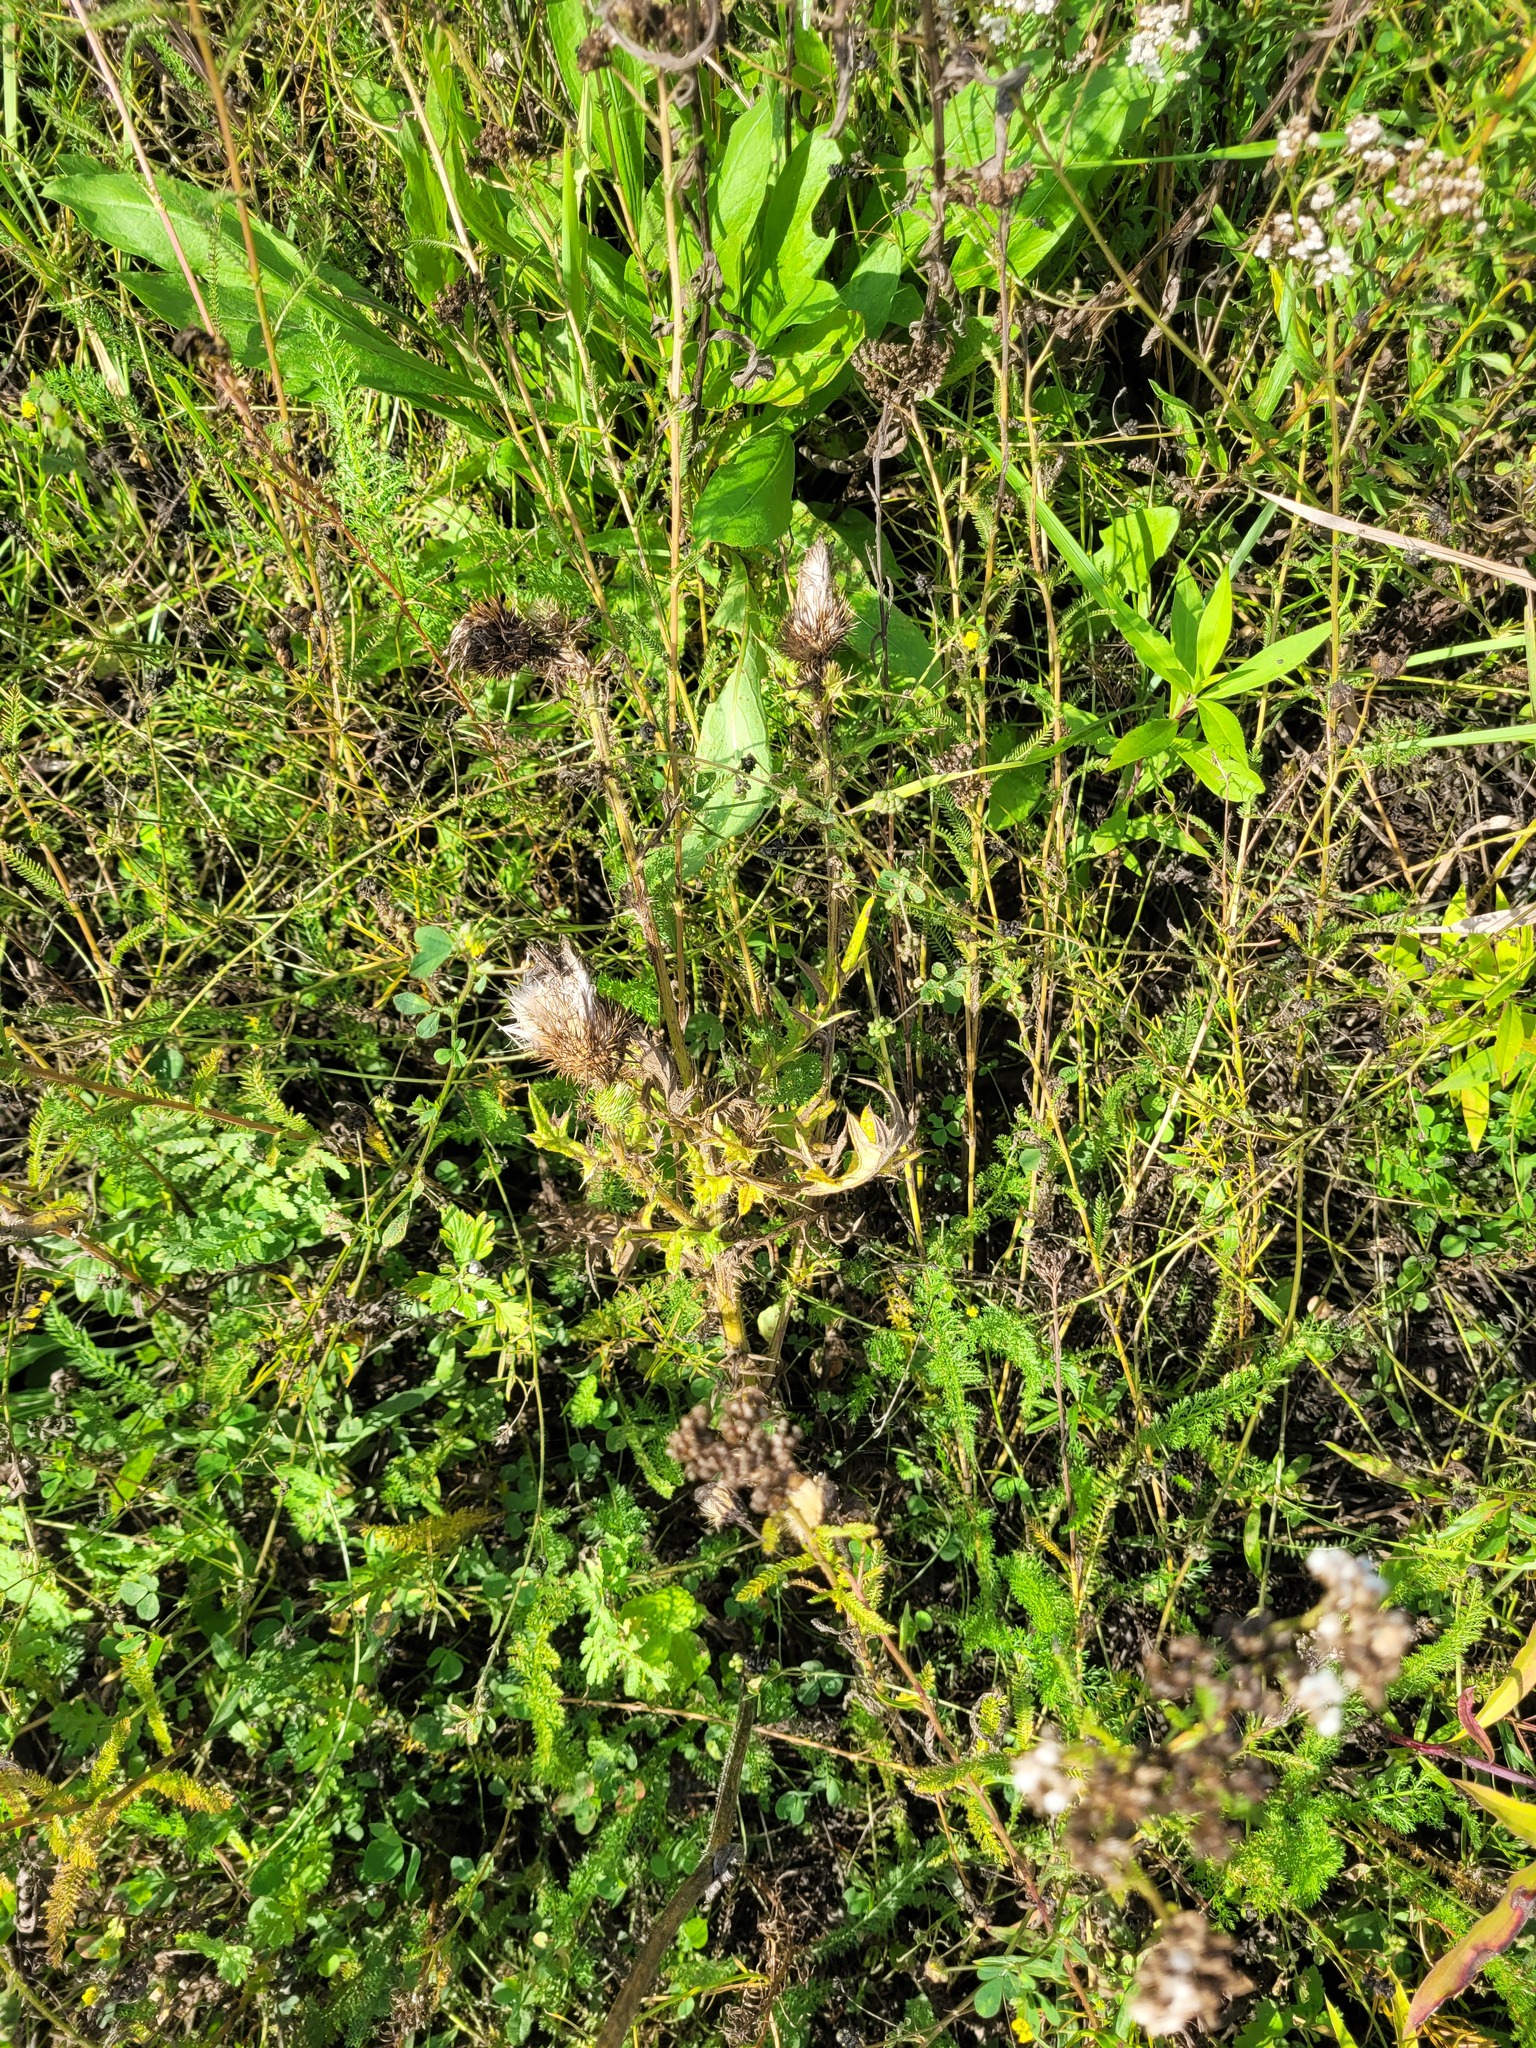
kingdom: Plantae
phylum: Tracheophyta
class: Magnoliopsida
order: Asterales
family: Asteraceae
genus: Cirsium
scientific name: Cirsium vulgare
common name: Bull thistle
